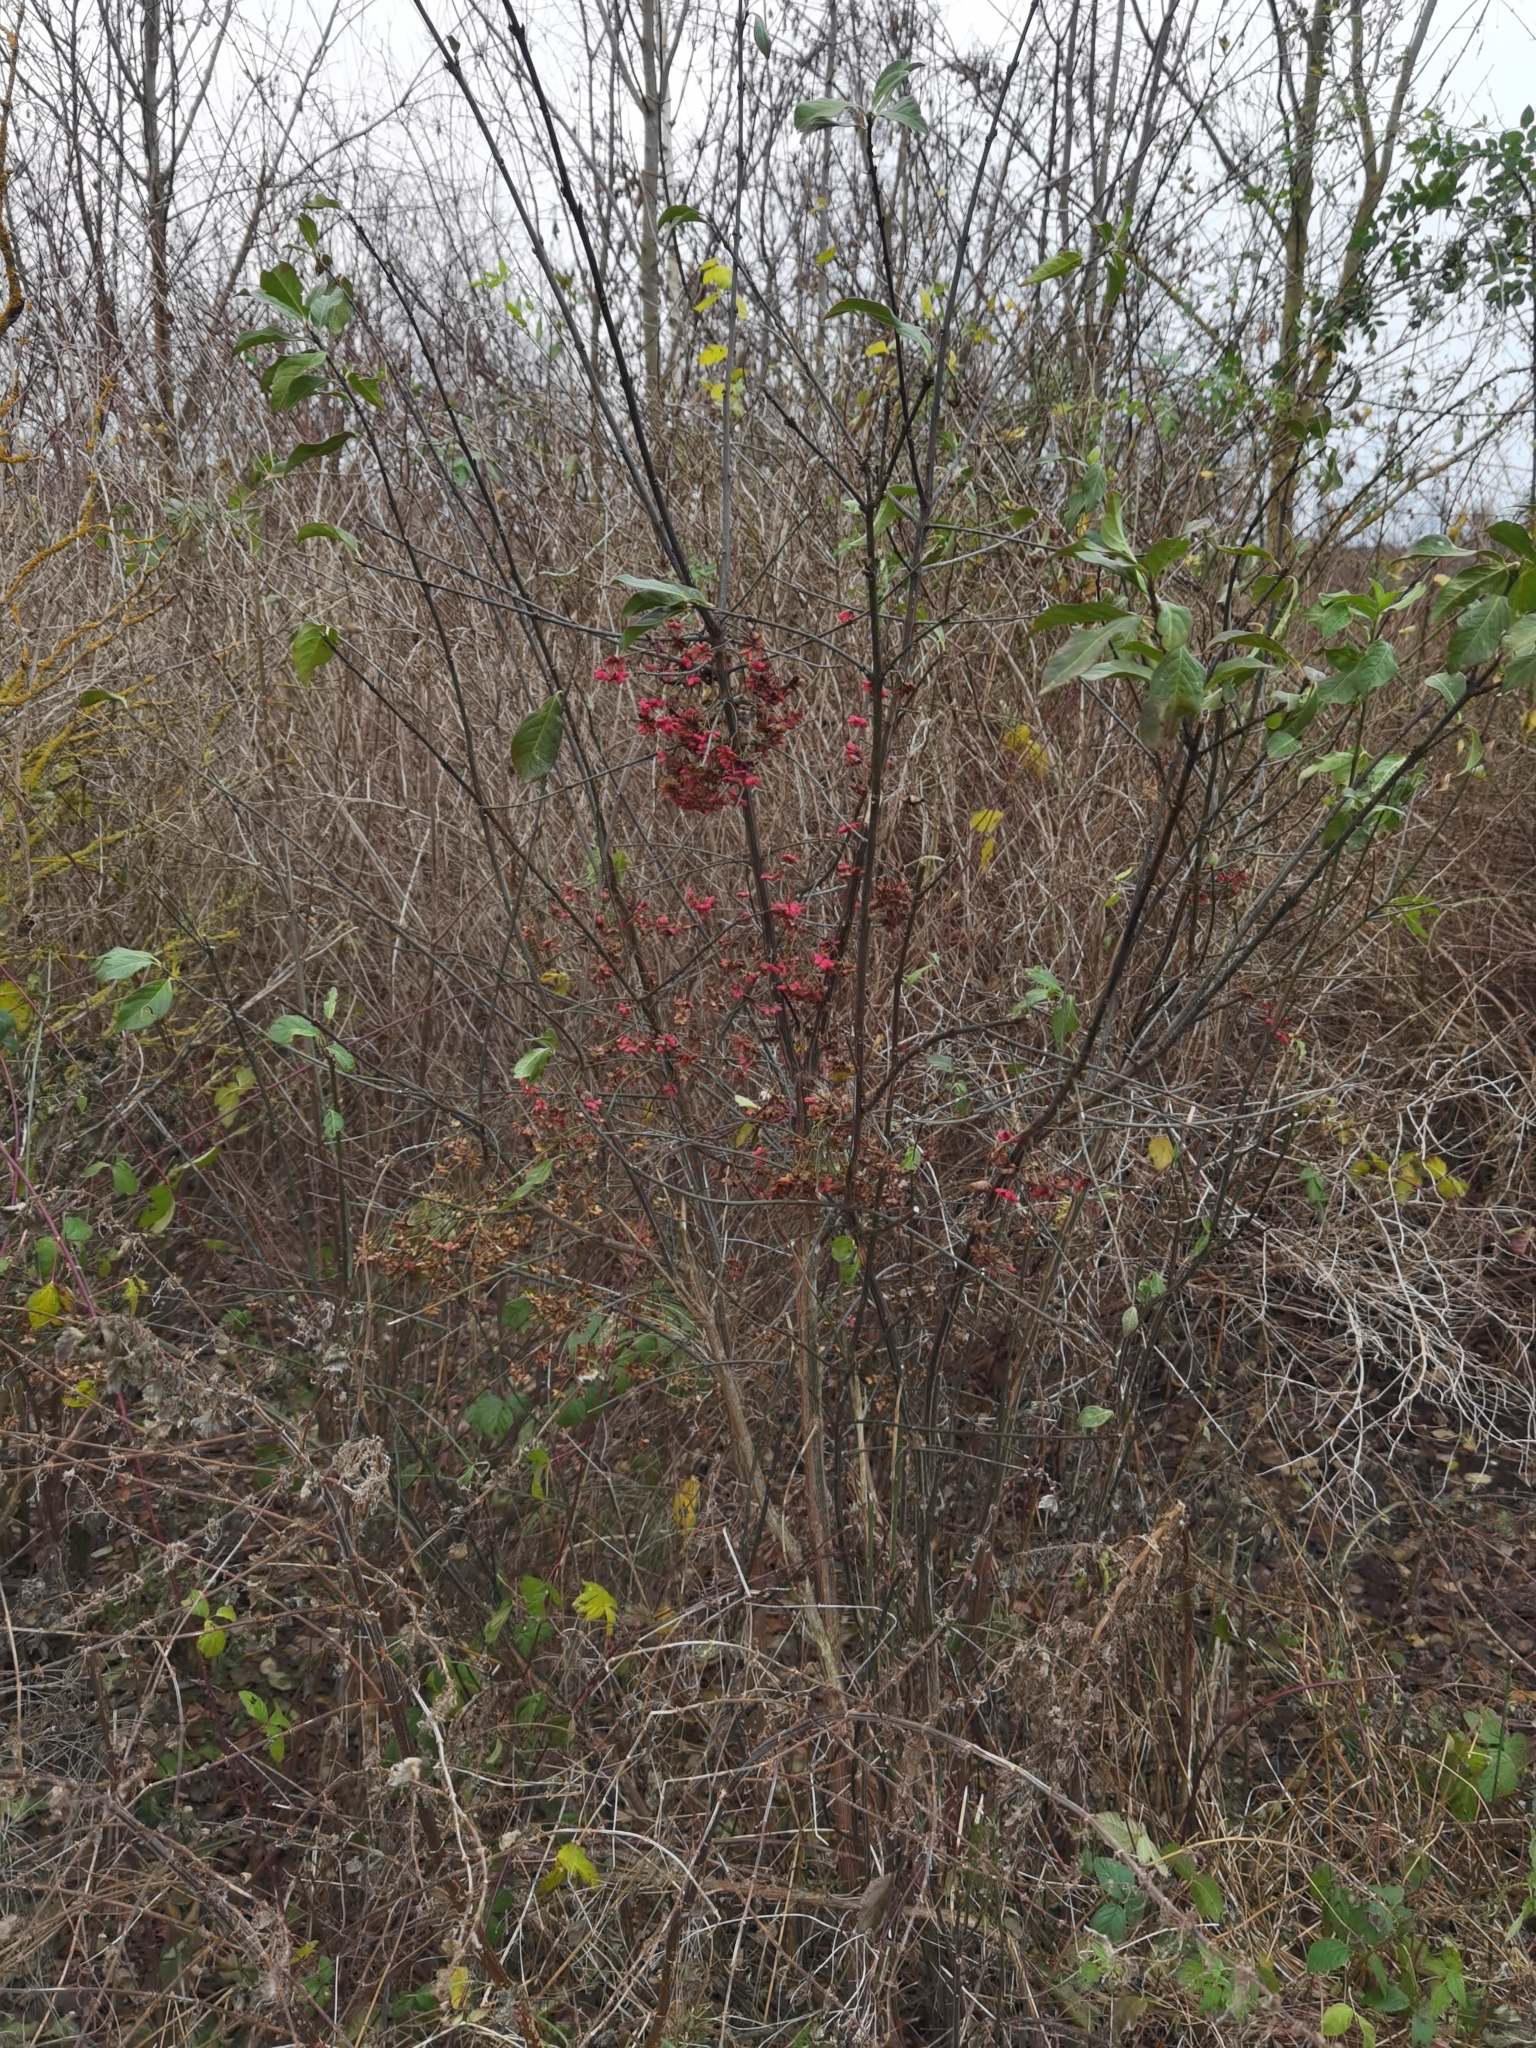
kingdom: Plantae
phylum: Tracheophyta
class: Magnoliopsida
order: Celastrales
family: Celastraceae
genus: Euonymus
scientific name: Euonymus europaeus
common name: Spindle
